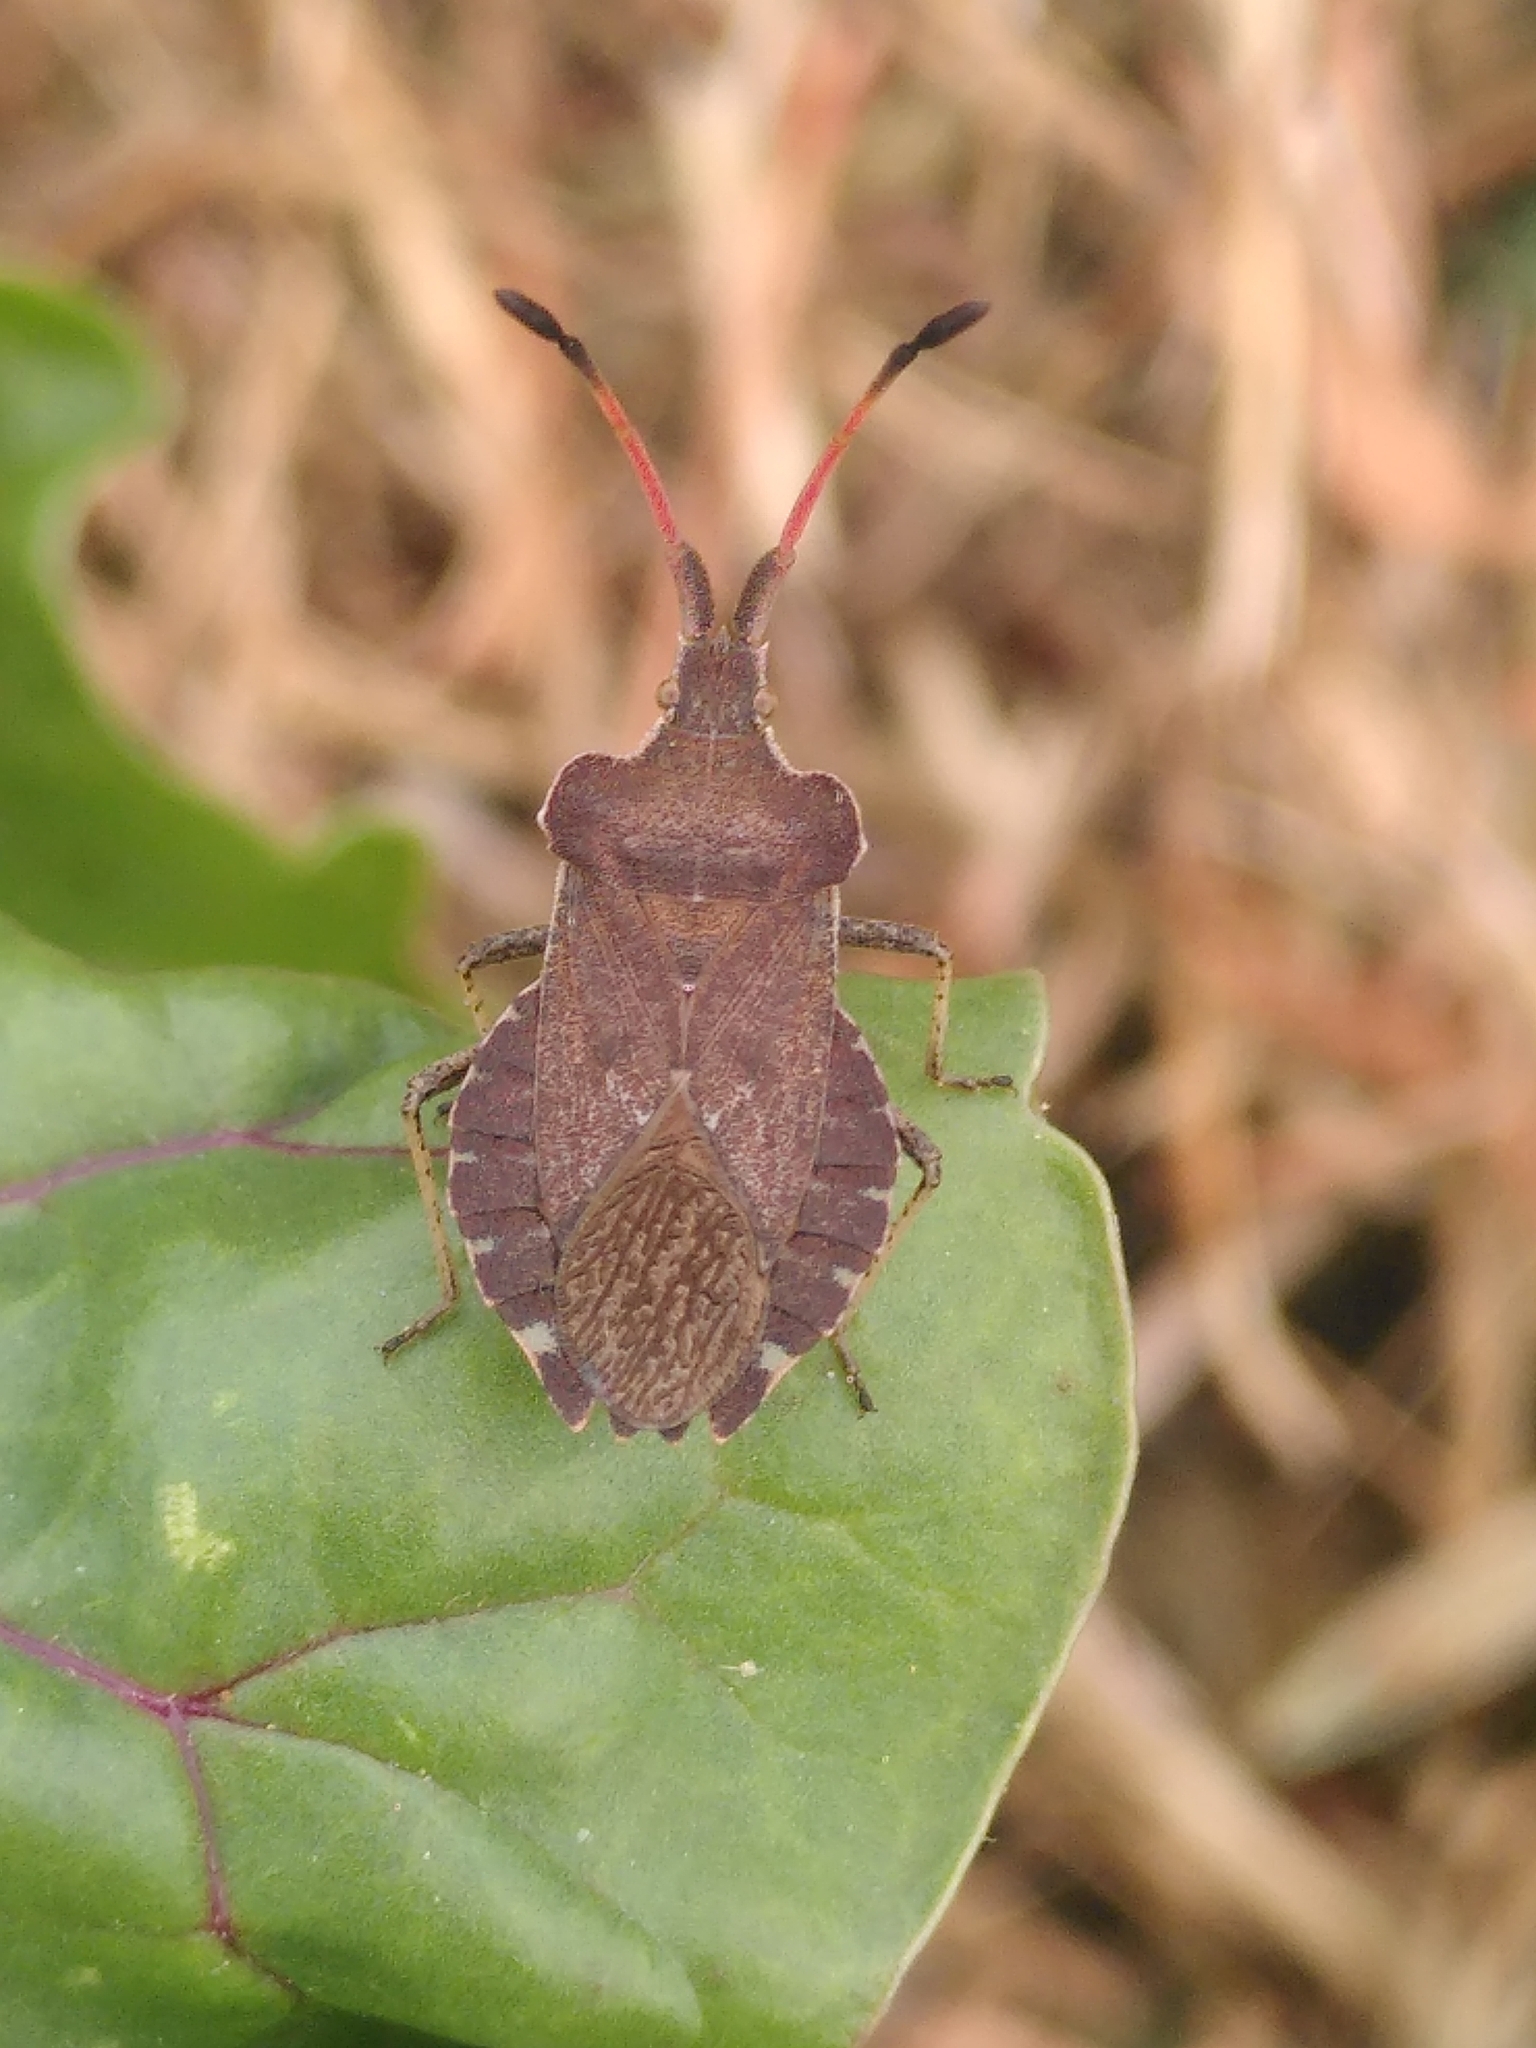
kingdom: Animalia
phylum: Arthropoda
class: Insecta
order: Hemiptera
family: Coreidae
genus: Enoplops
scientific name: Enoplops scapha
